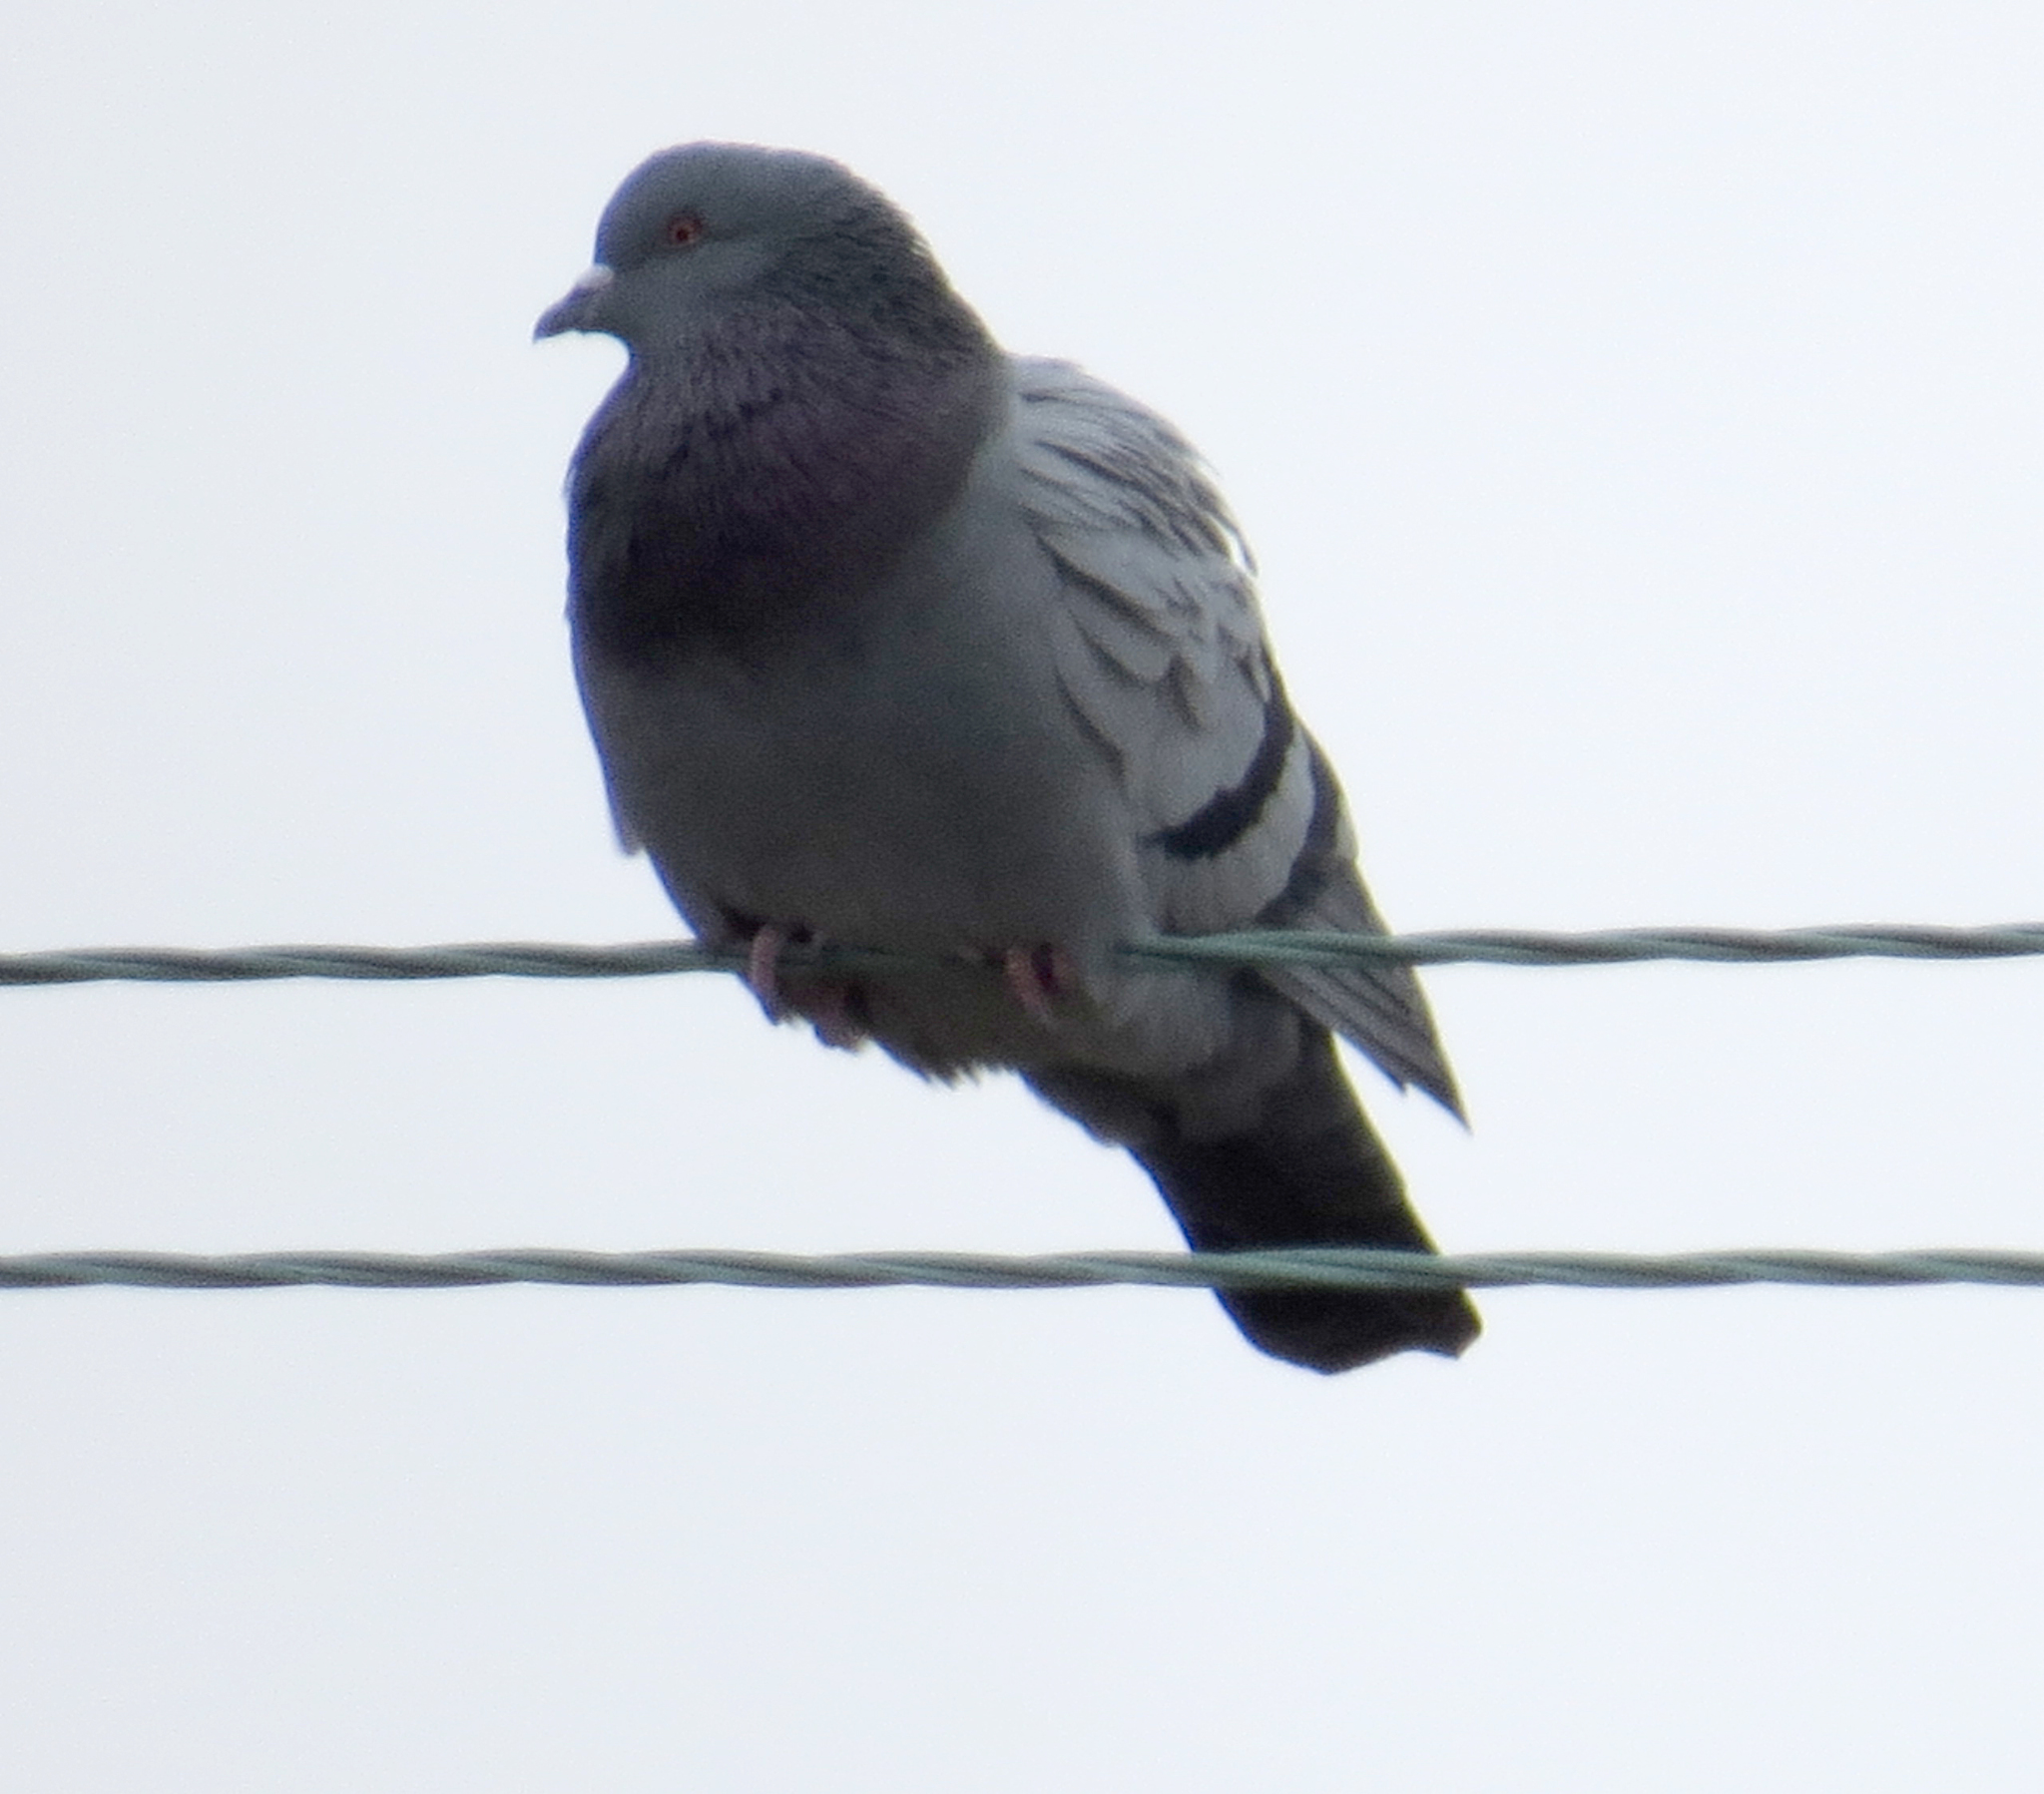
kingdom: Animalia
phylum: Chordata
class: Aves
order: Columbiformes
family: Columbidae
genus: Columba
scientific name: Columba livia
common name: Rock pigeon
